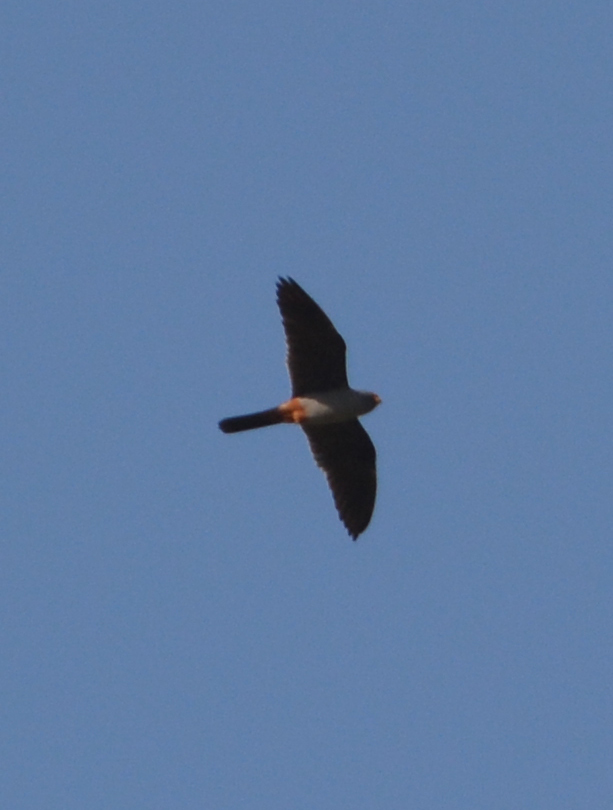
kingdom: Animalia
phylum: Chordata
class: Aves
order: Falconiformes
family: Falconidae
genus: Falco
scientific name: Falco vespertinus
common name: Red-footed falcon
